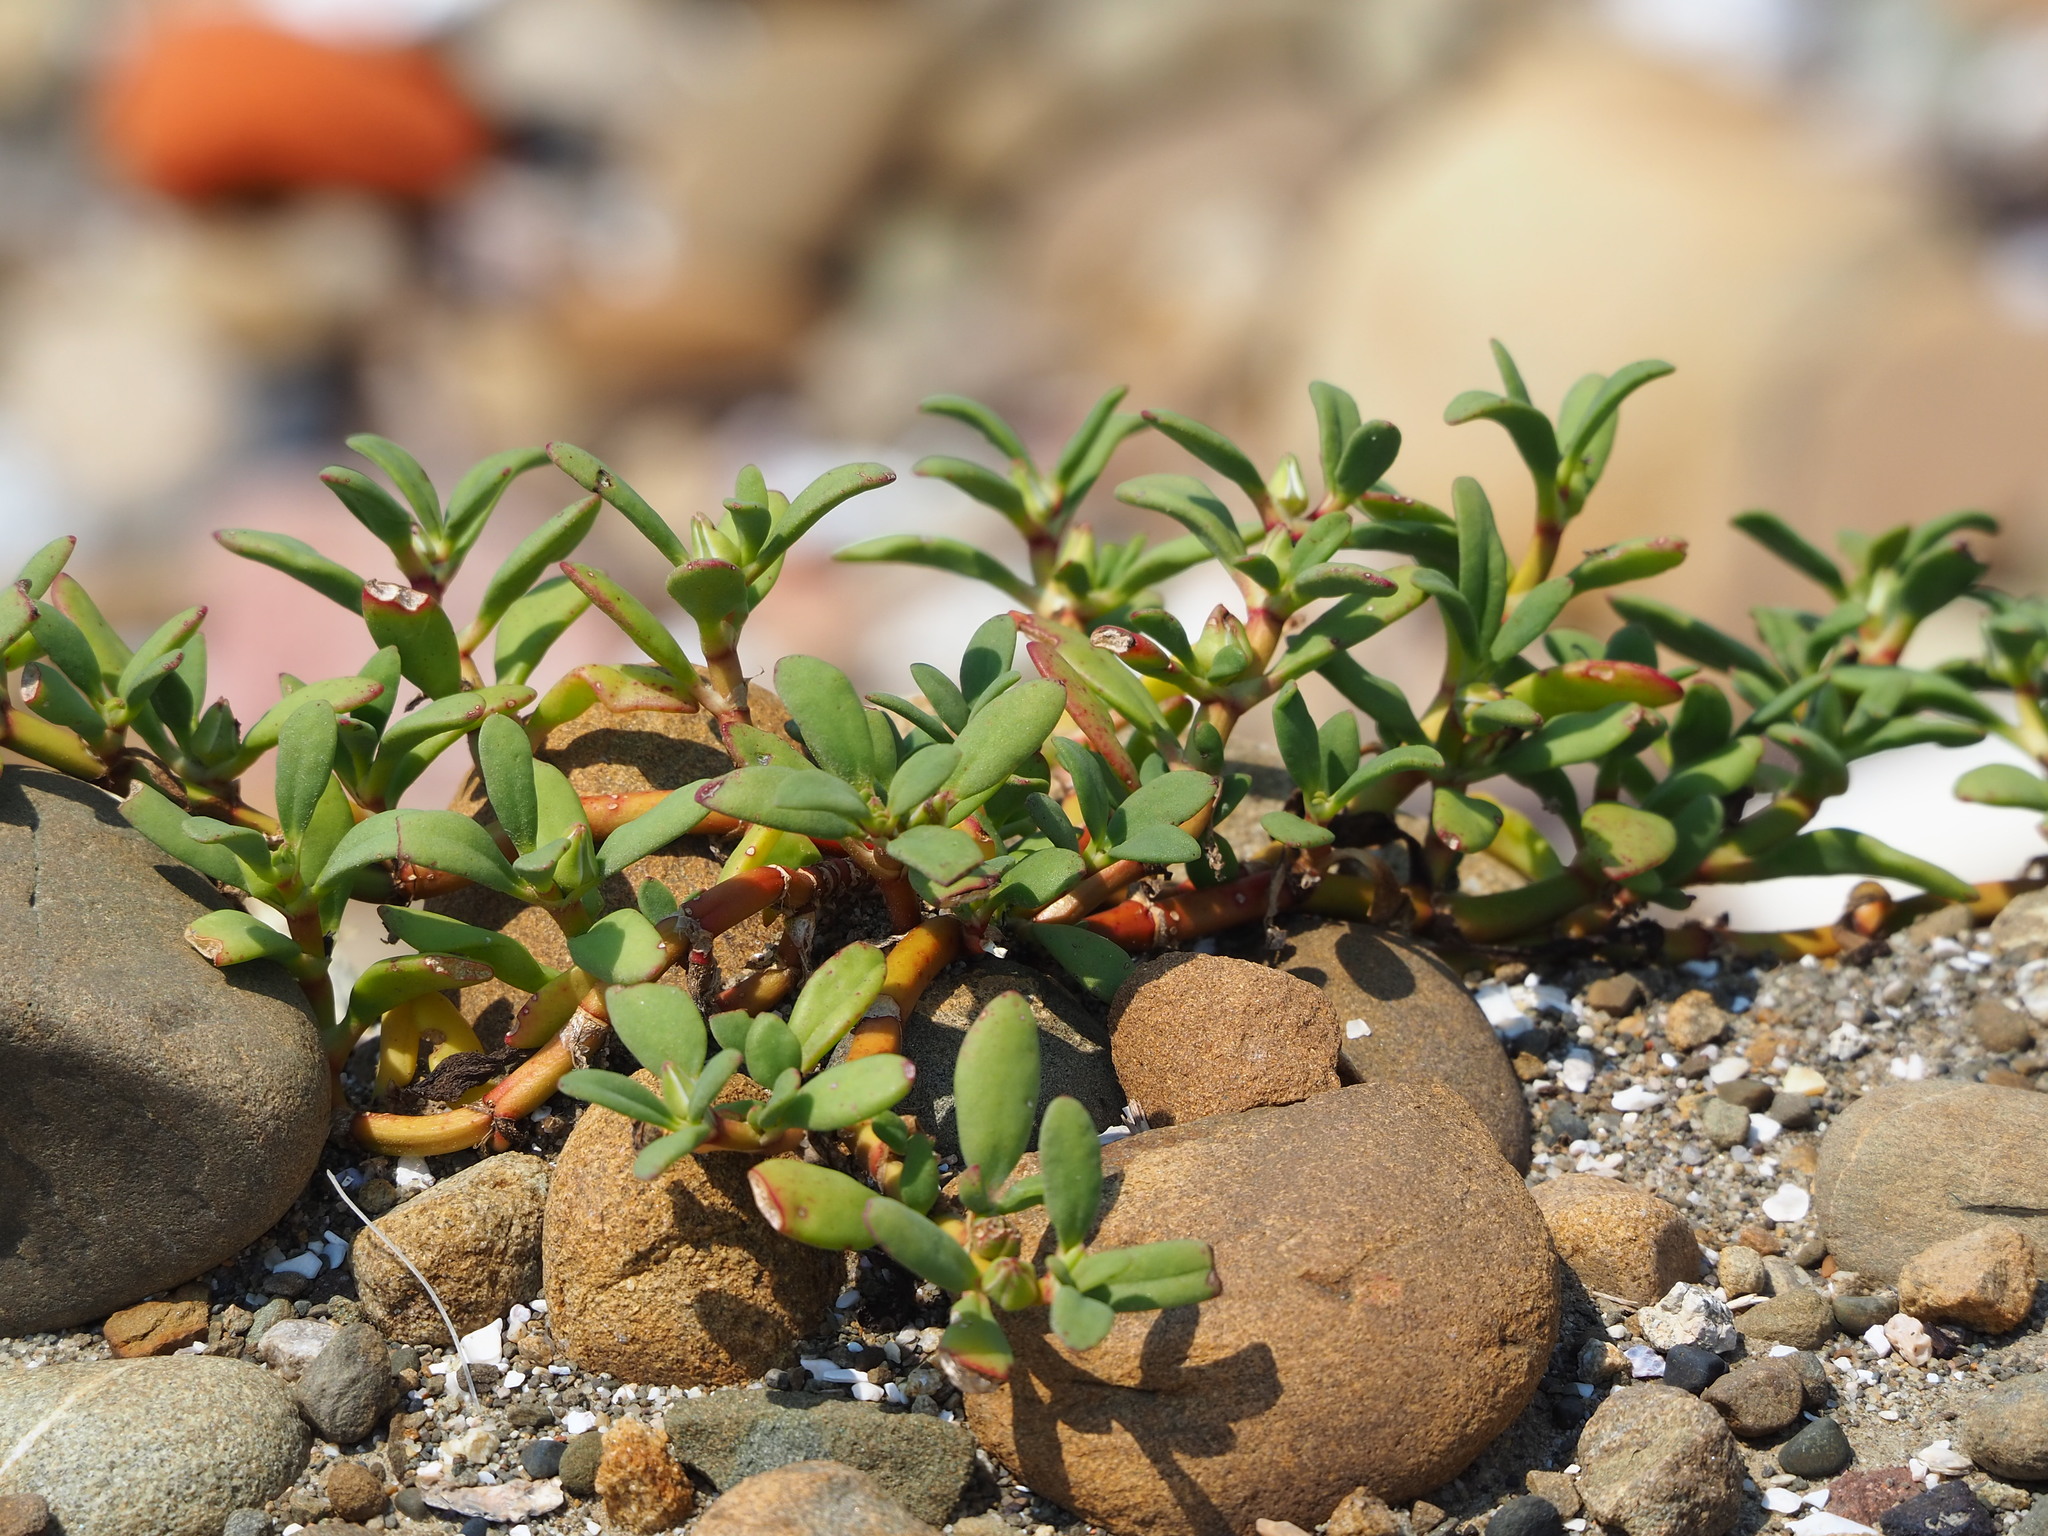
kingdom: Plantae
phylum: Tracheophyta
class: Magnoliopsida
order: Caryophyllales
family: Aizoaceae
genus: Sesuvium
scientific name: Sesuvium portulacastrum
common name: Sea-purslane
